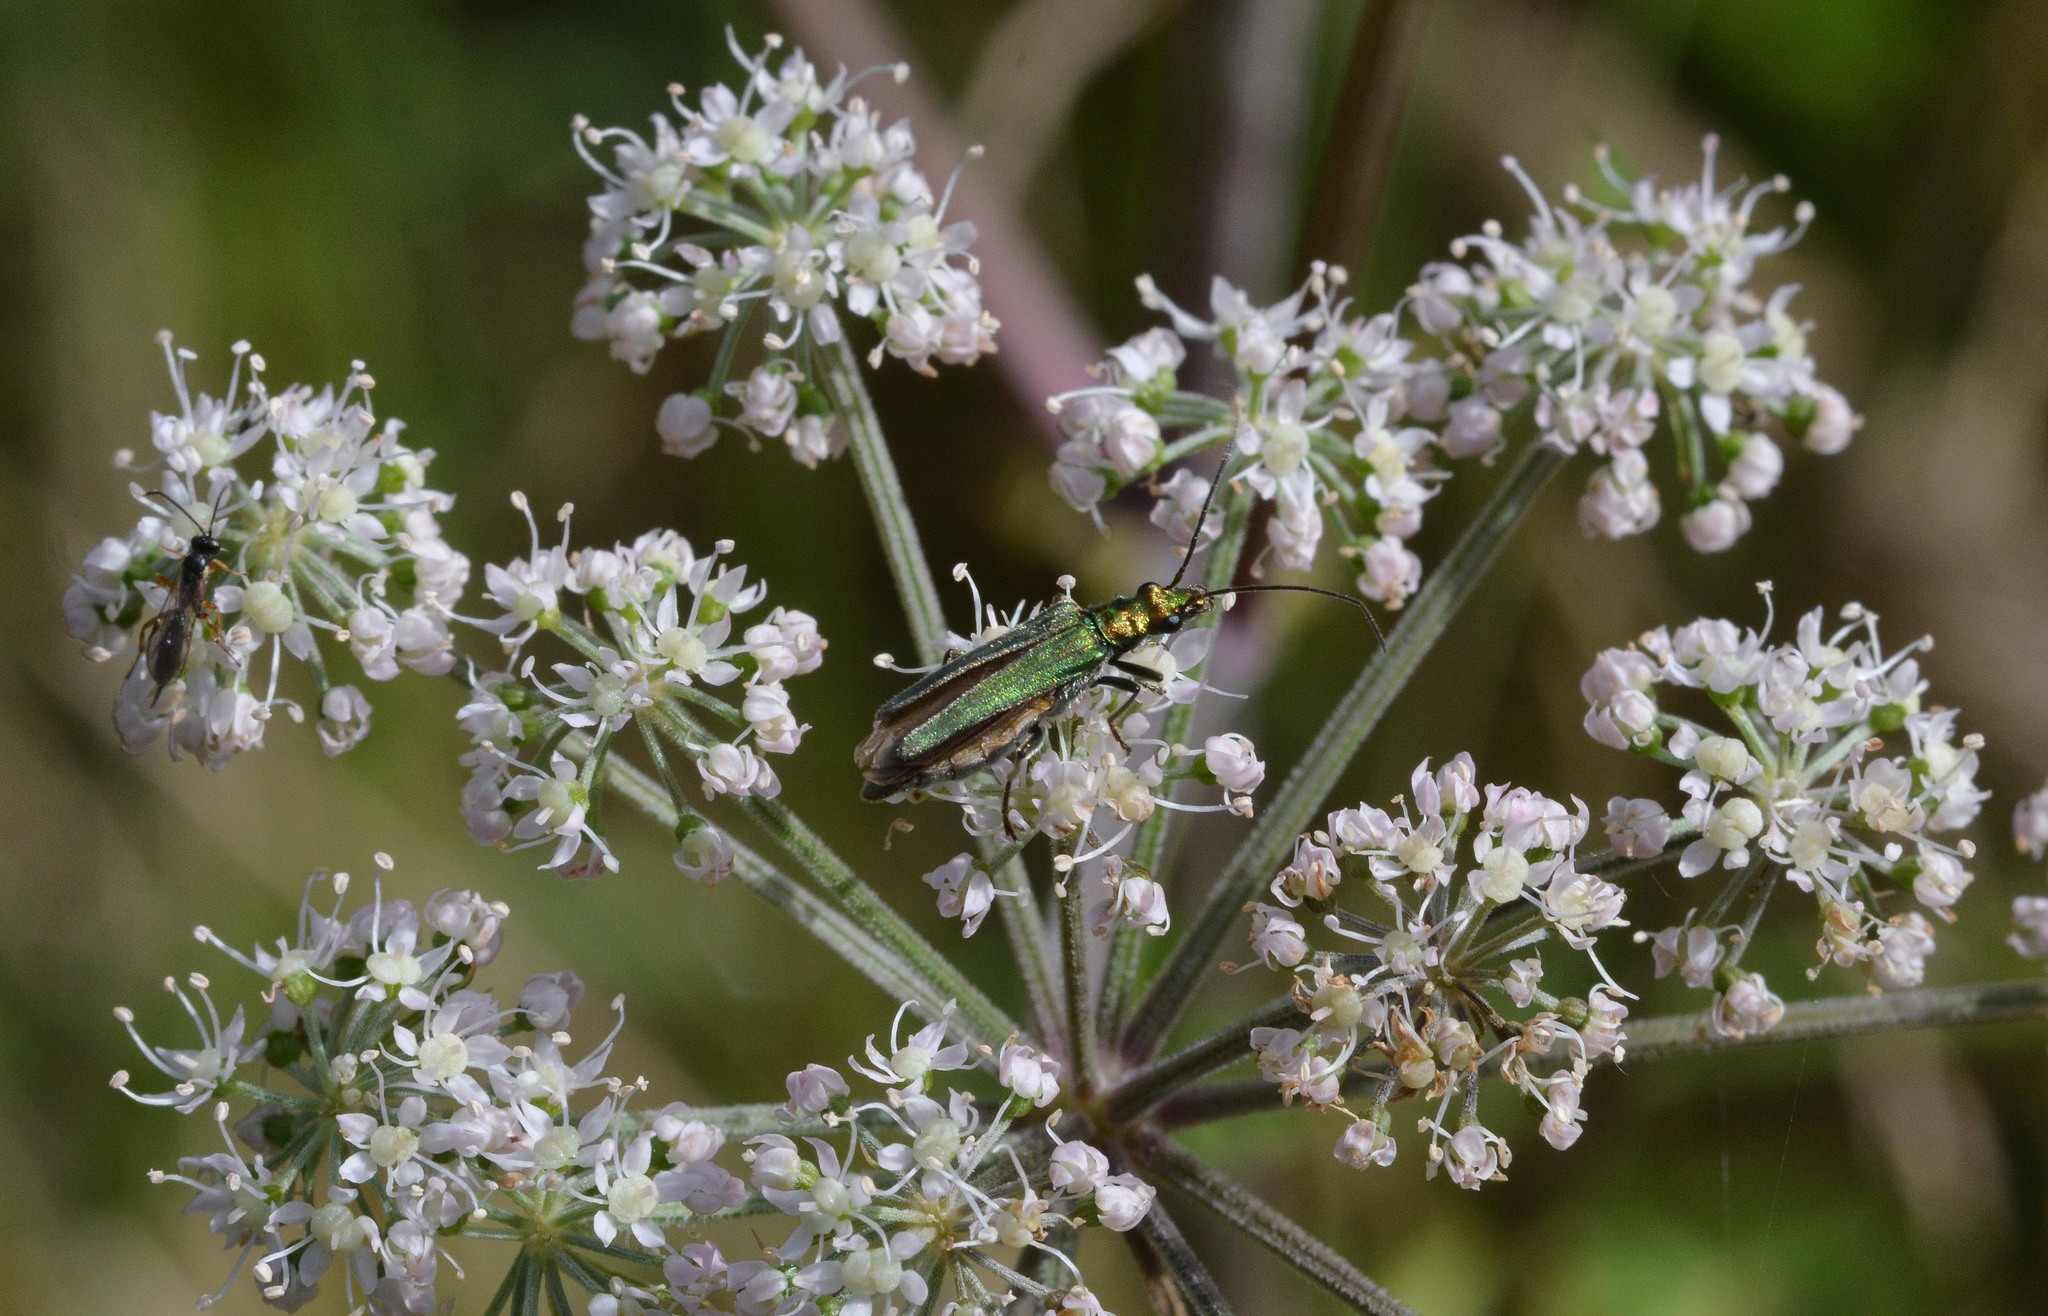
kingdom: Animalia
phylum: Arthropoda
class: Insecta
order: Coleoptera
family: Oedemeridae
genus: Oedemera
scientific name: Oedemera nobilis
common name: Swollen-thighed beetle
